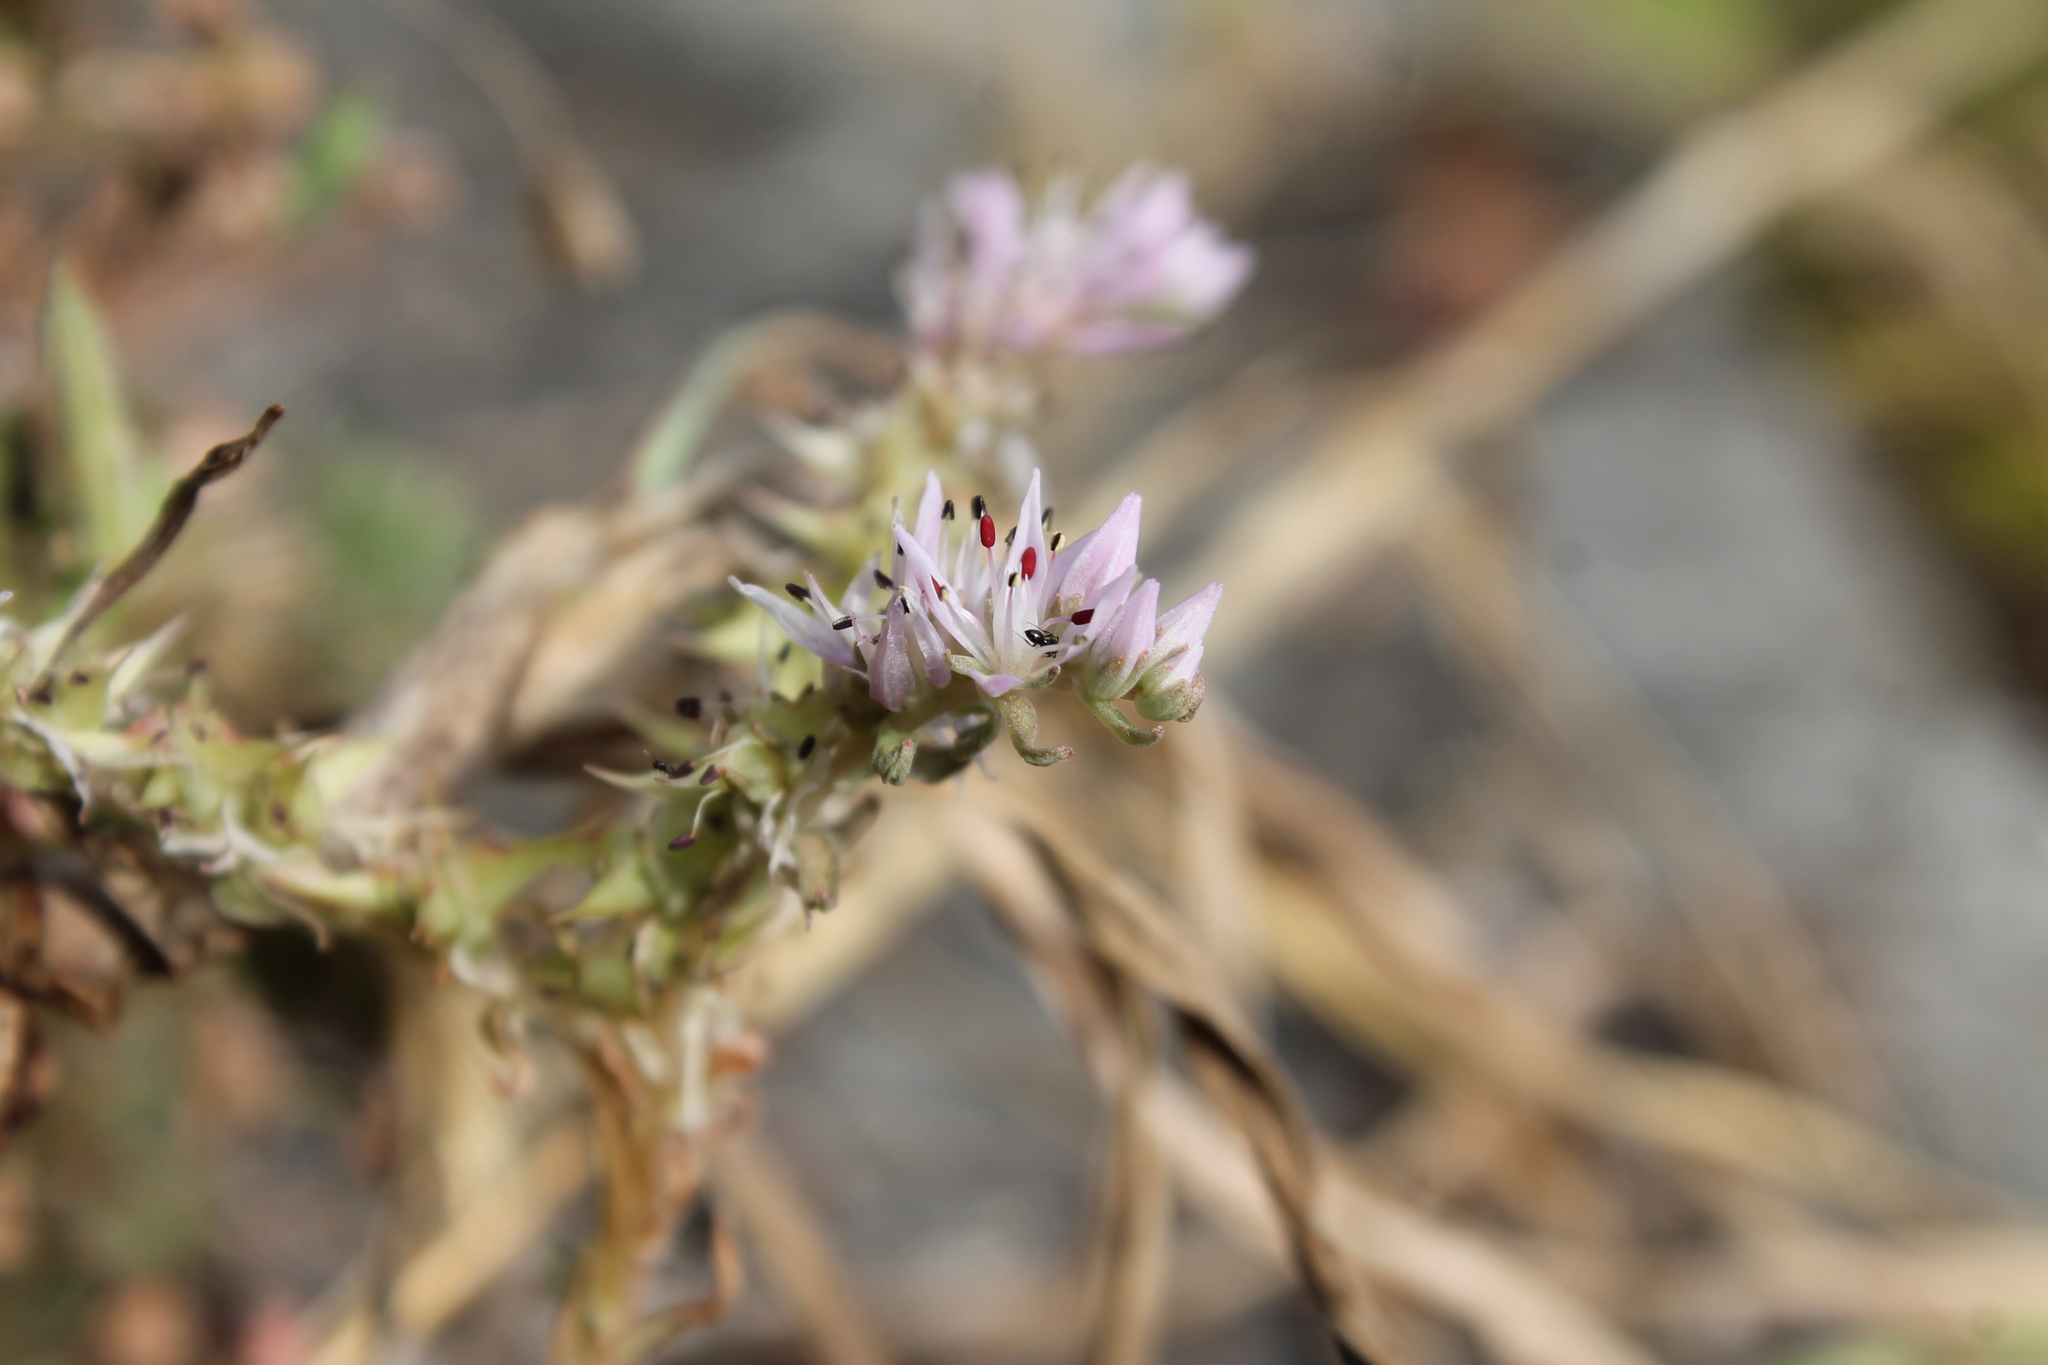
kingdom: Plantae
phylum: Tracheophyta
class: Magnoliopsida
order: Saxifragales
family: Crassulaceae
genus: Sedum
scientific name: Sedum pulchellum
